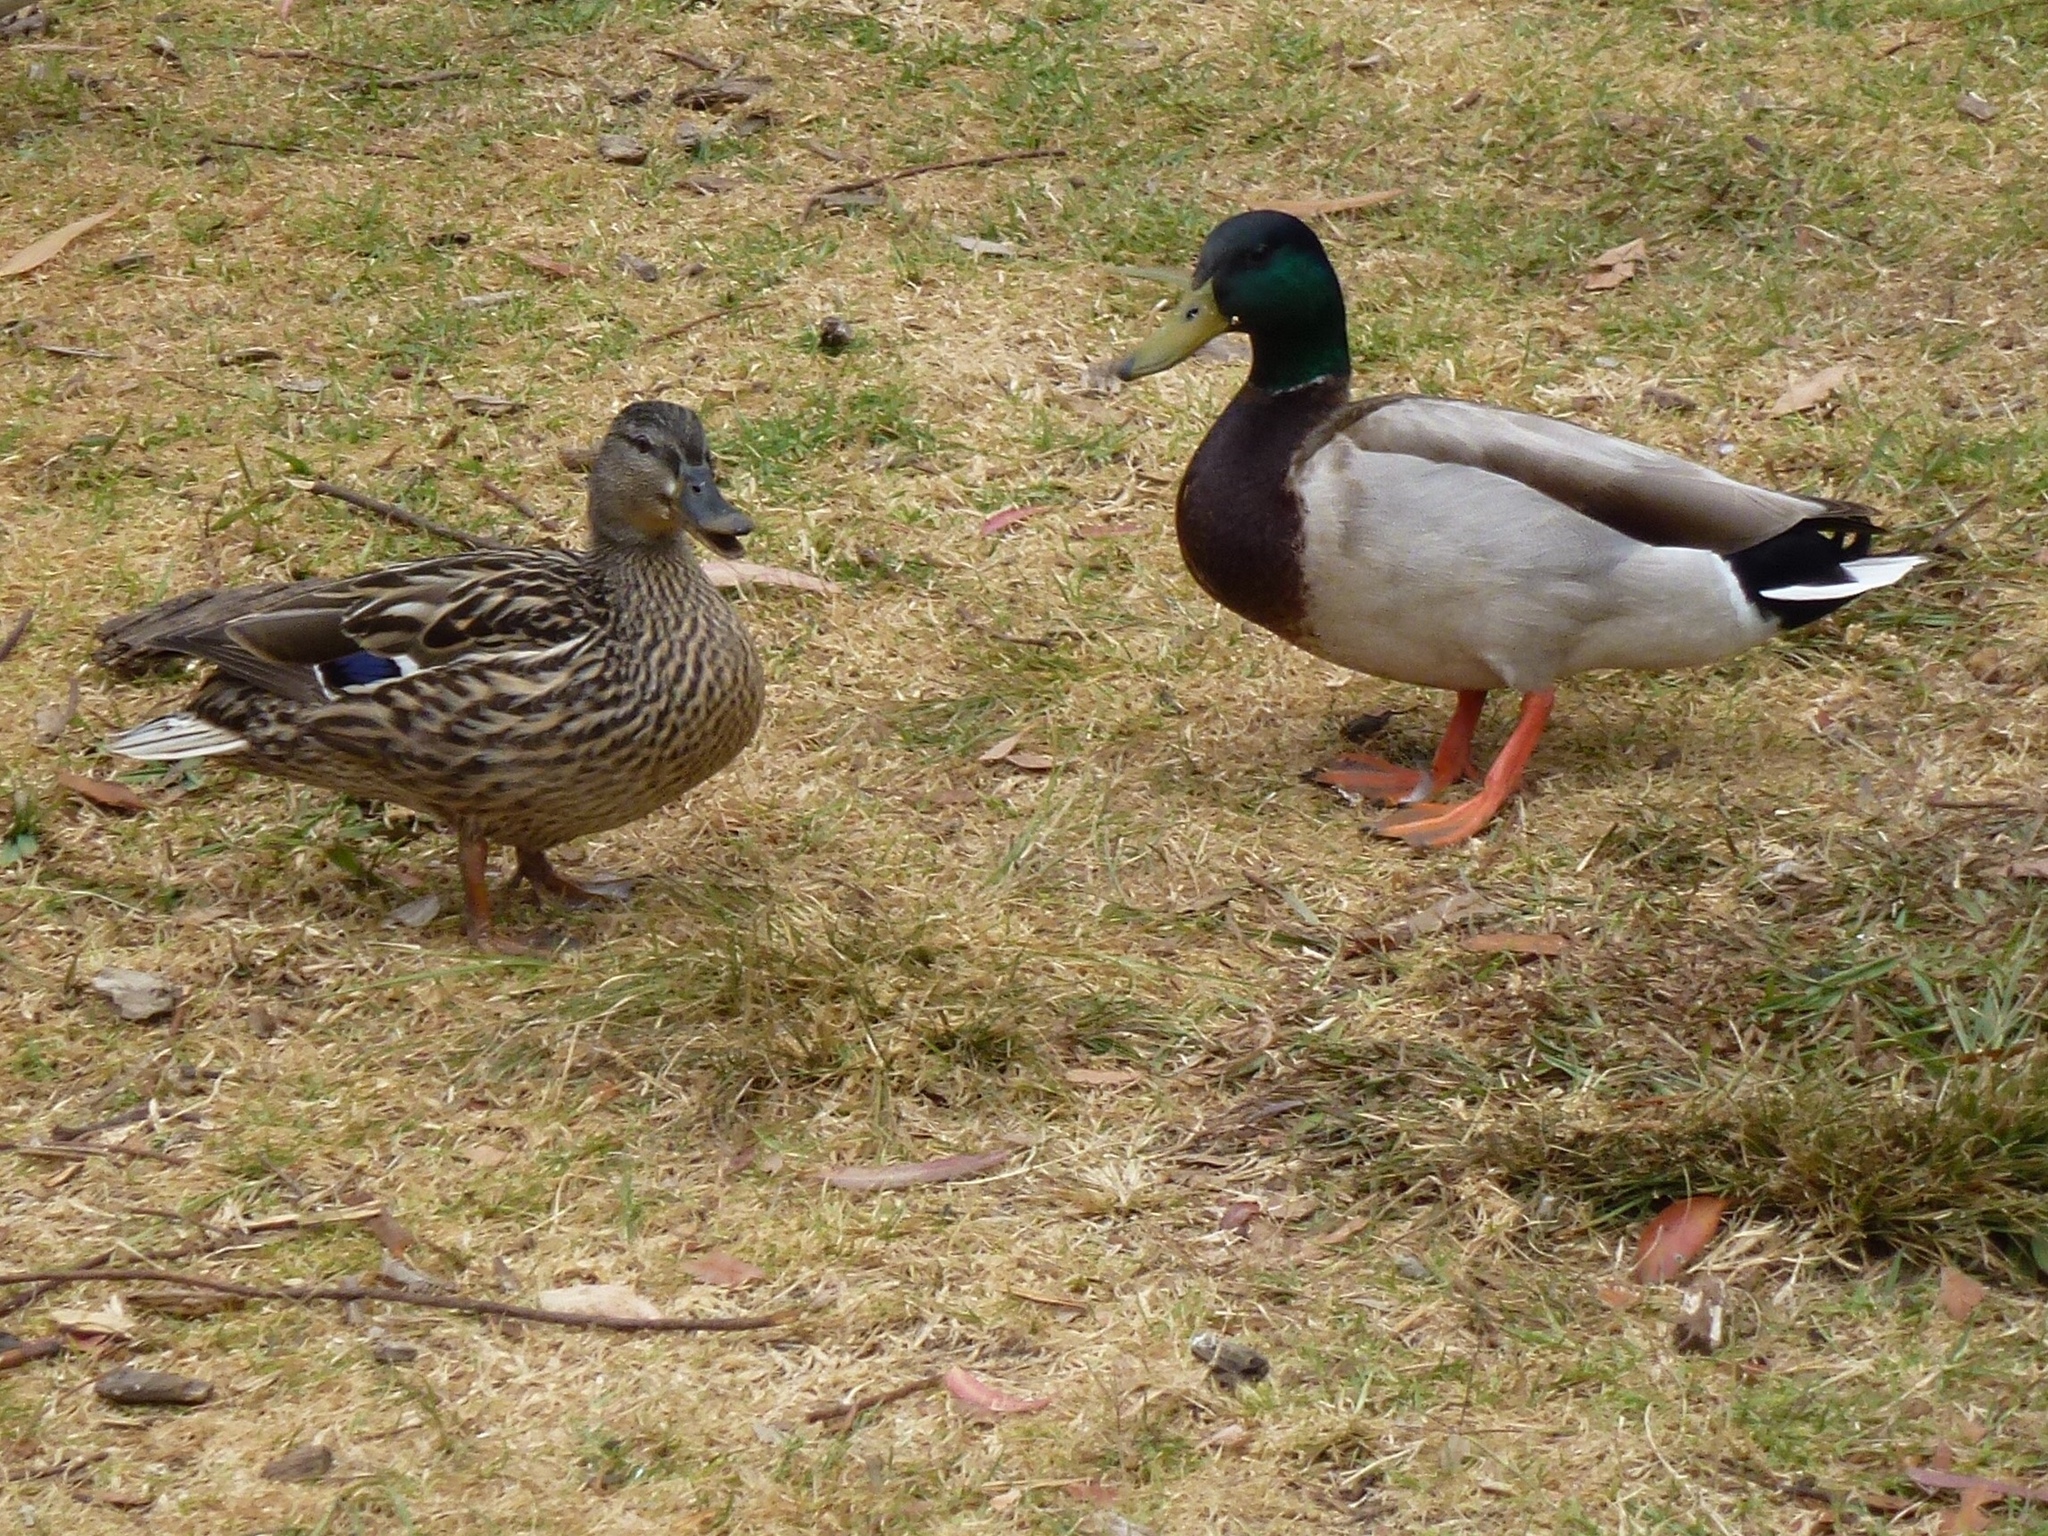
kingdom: Animalia
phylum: Chordata
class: Aves
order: Anseriformes
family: Anatidae
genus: Anas
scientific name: Anas platyrhynchos
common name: Mallard
